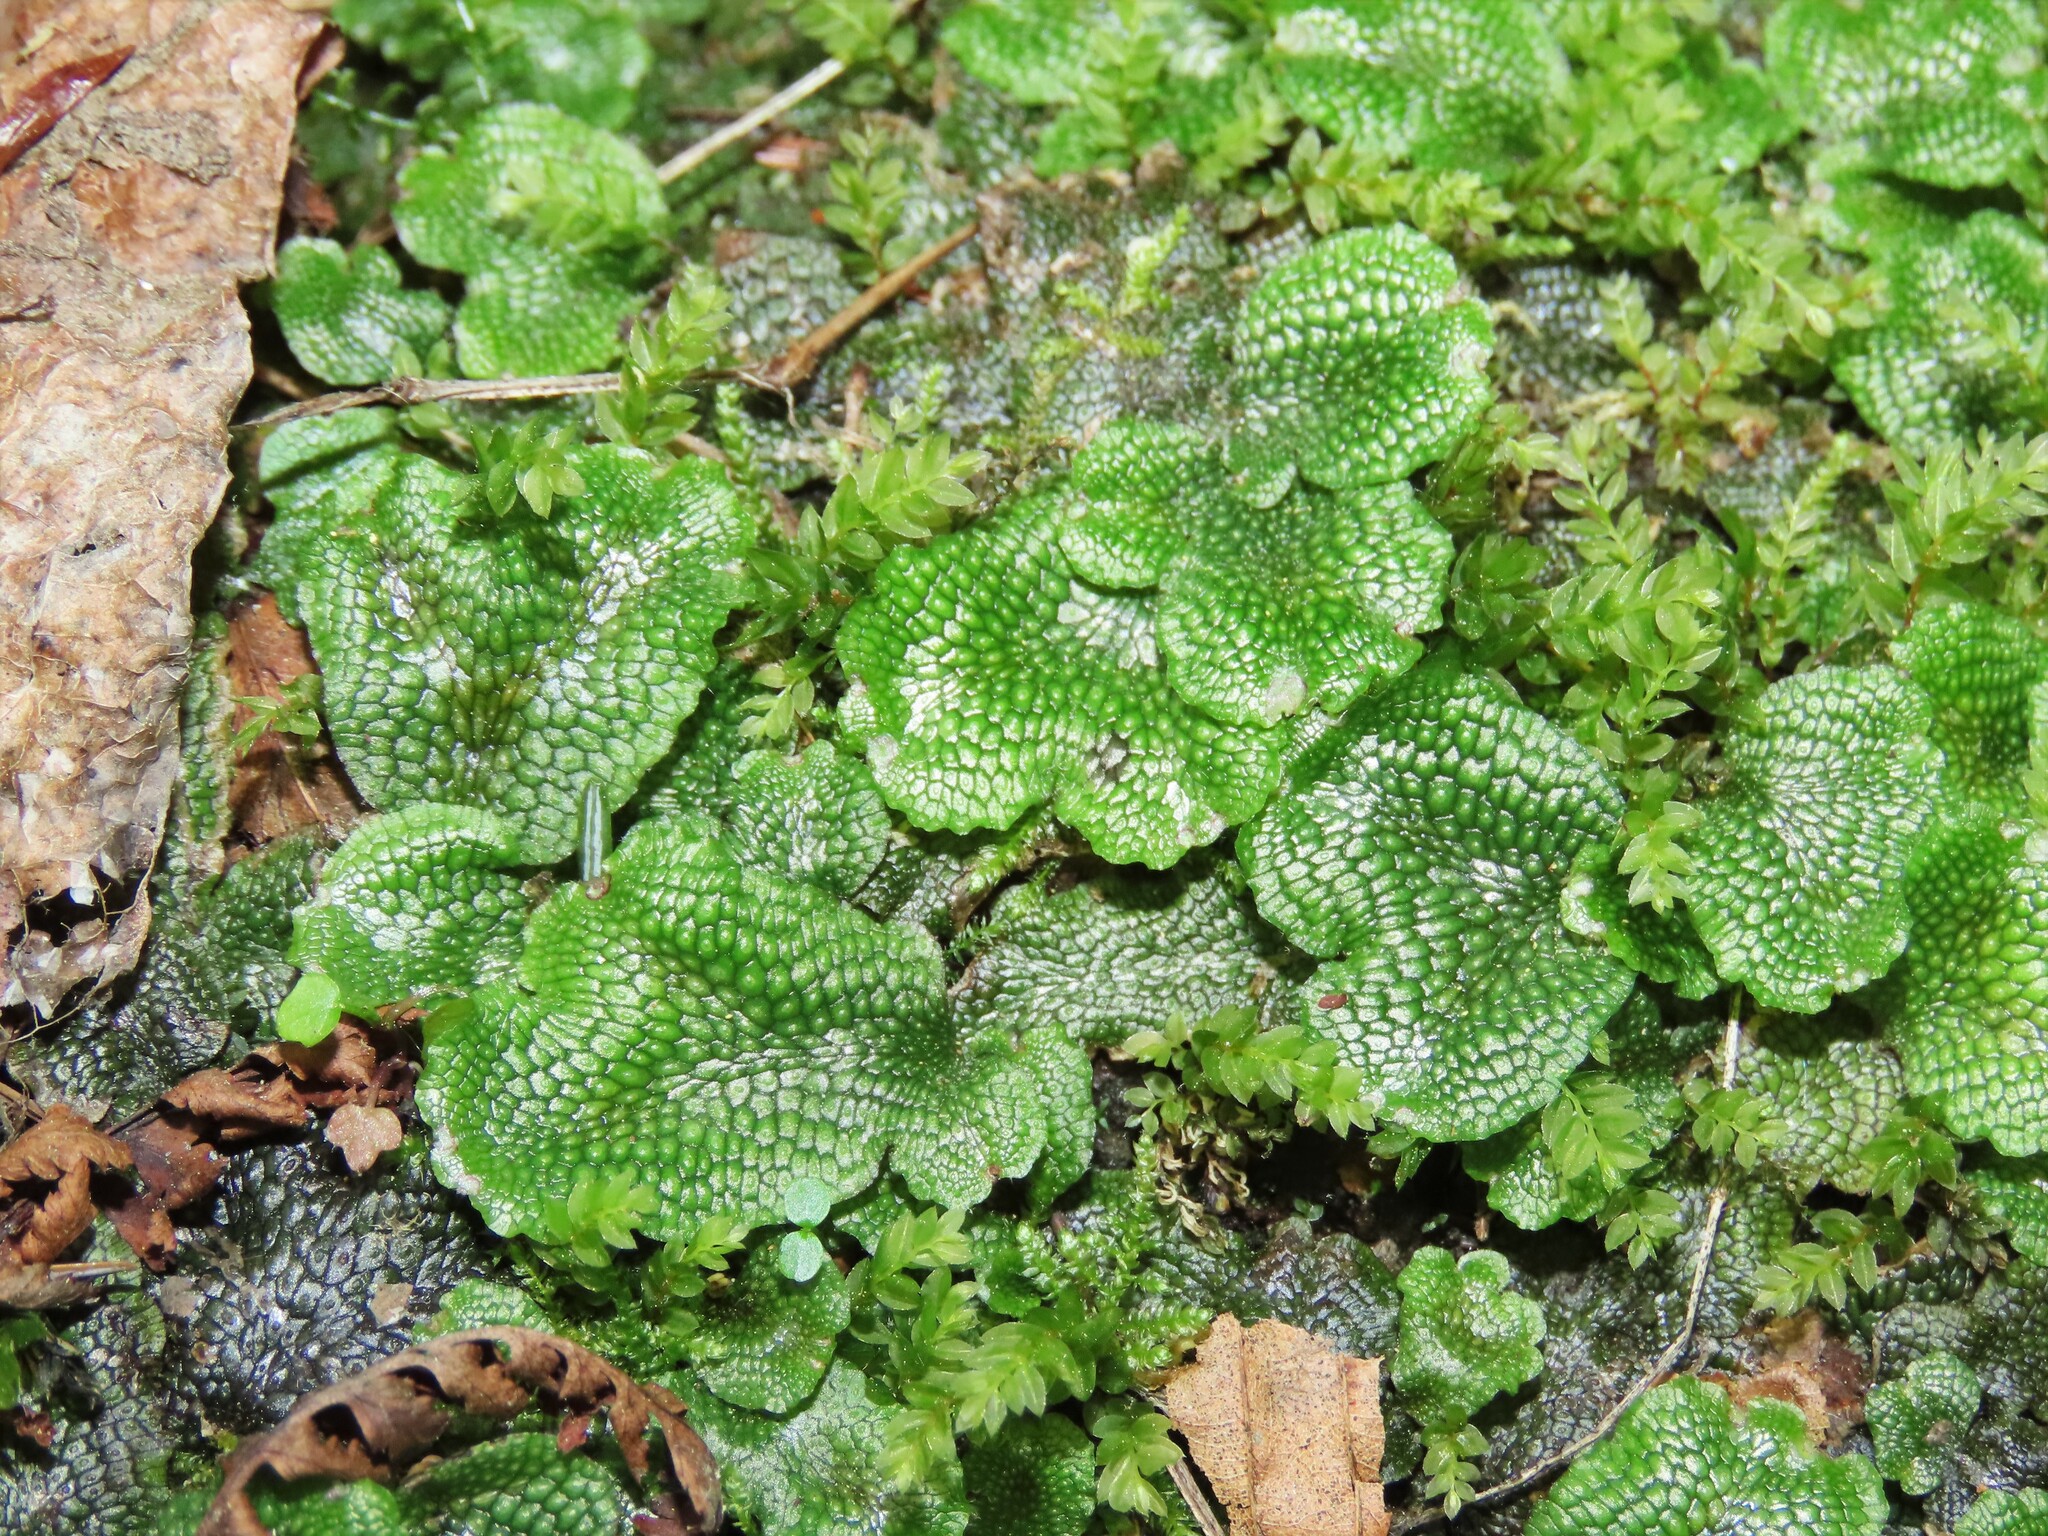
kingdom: Plantae
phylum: Marchantiophyta
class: Marchantiopsida
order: Marchantiales
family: Conocephalaceae
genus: Conocephalum
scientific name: Conocephalum salebrosum
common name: Cat-tongue liverwort
